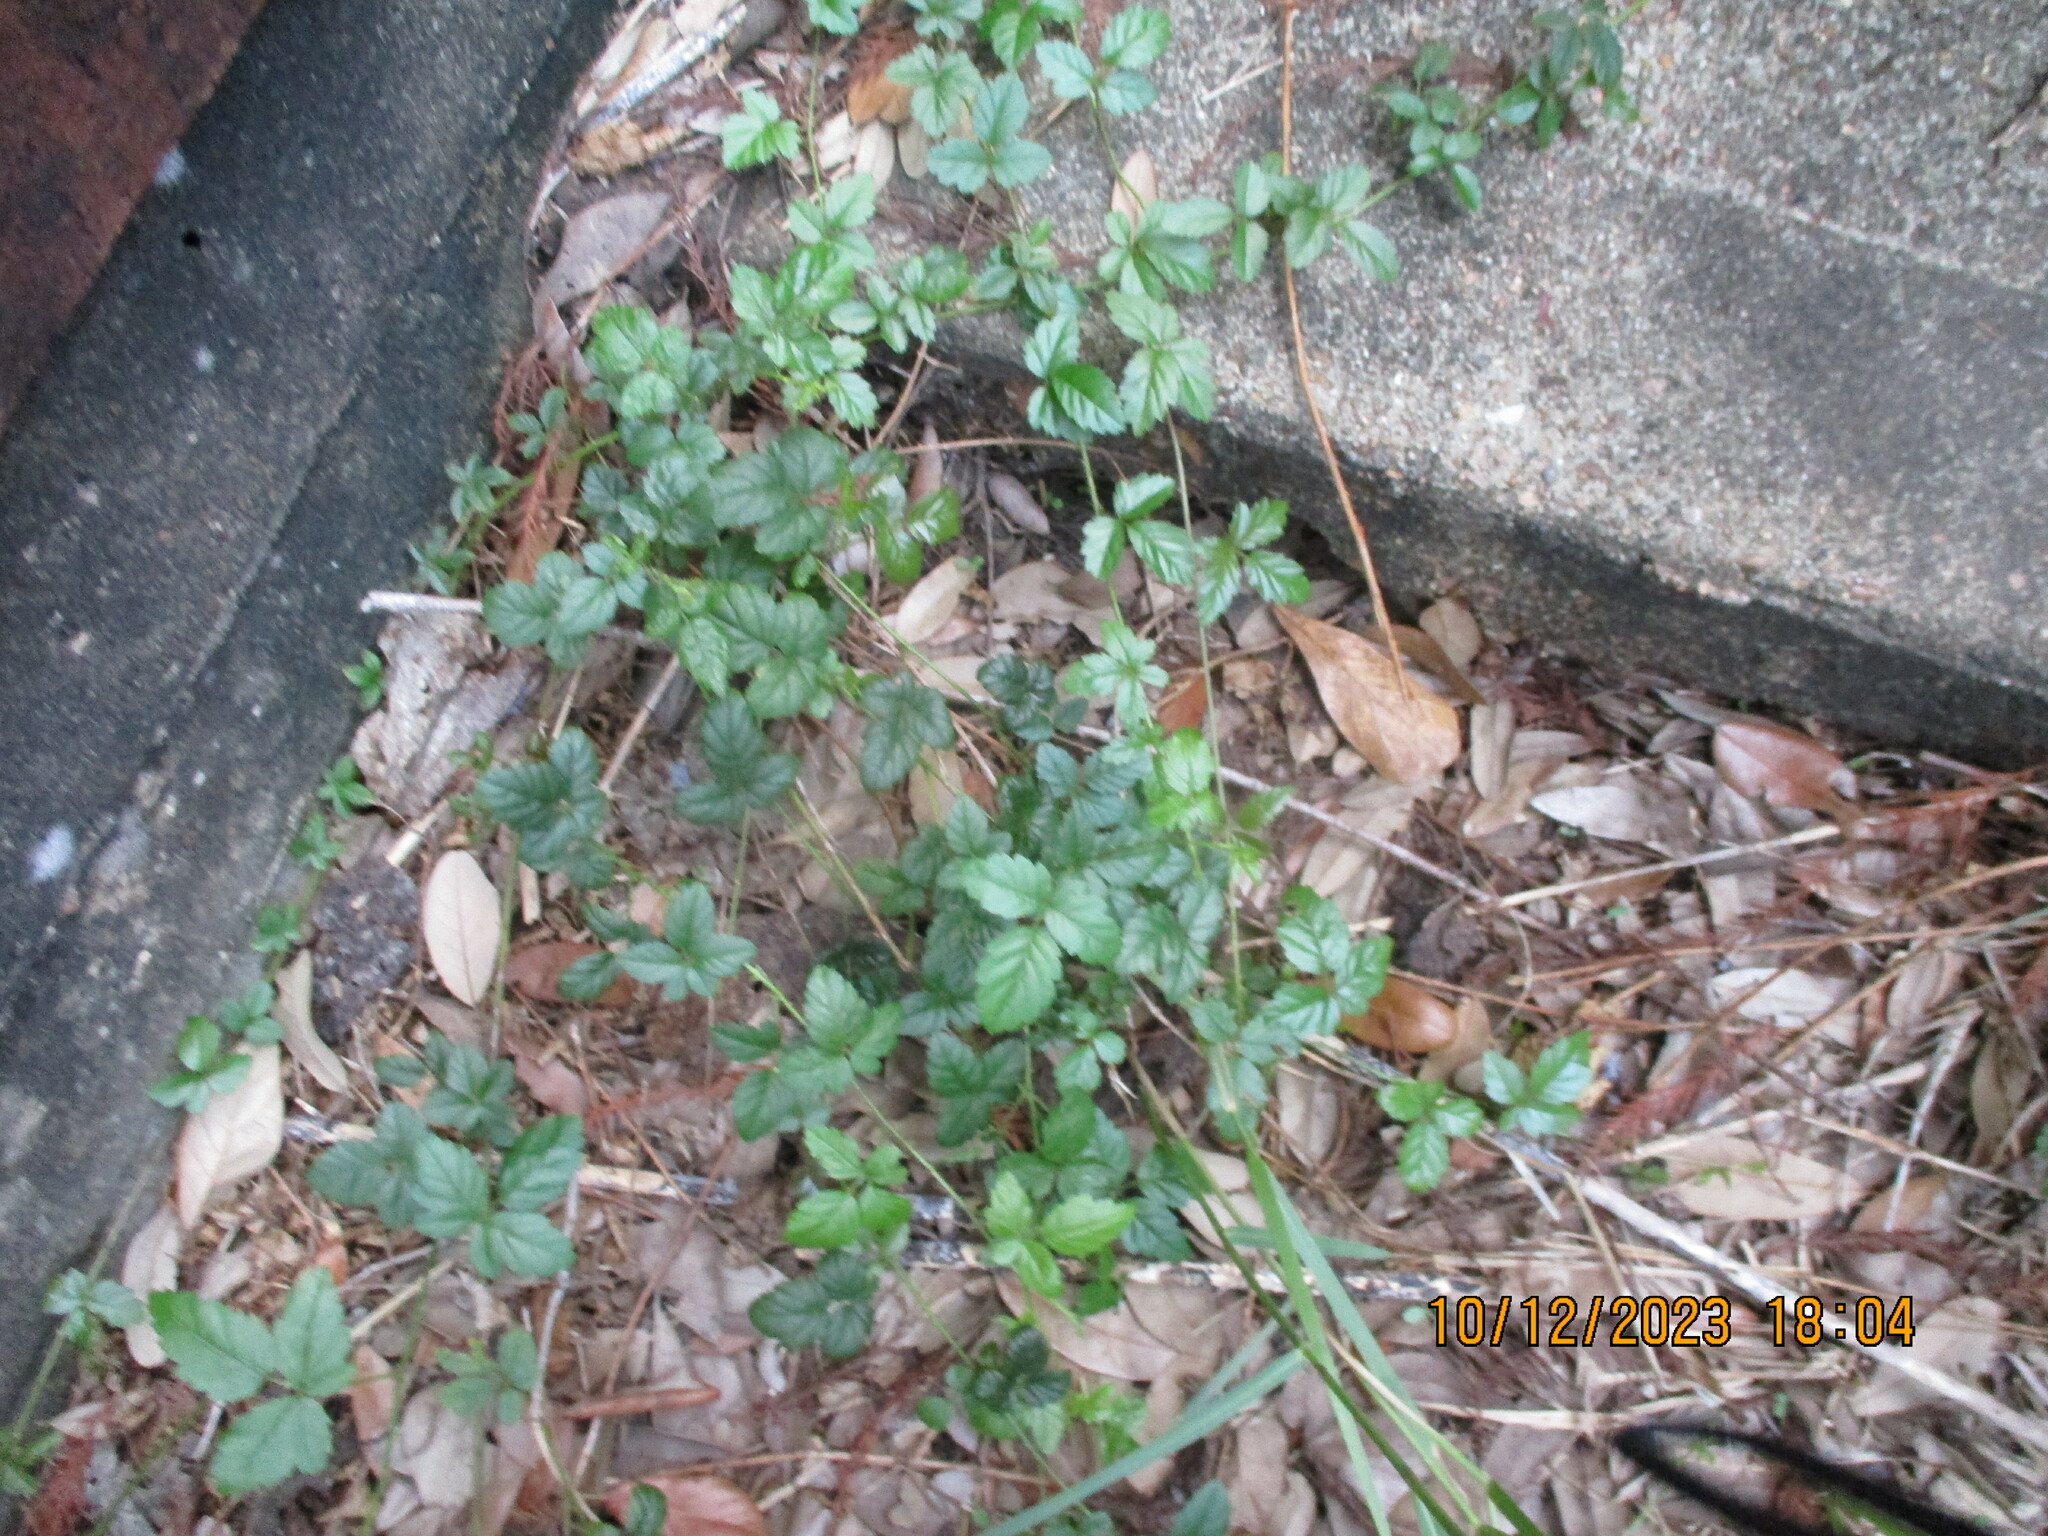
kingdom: Plantae
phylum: Tracheophyta
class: Magnoliopsida
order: Rosales
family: Rosaceae
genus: Rubus
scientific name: Rubus trivialis
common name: Southern dewberry
